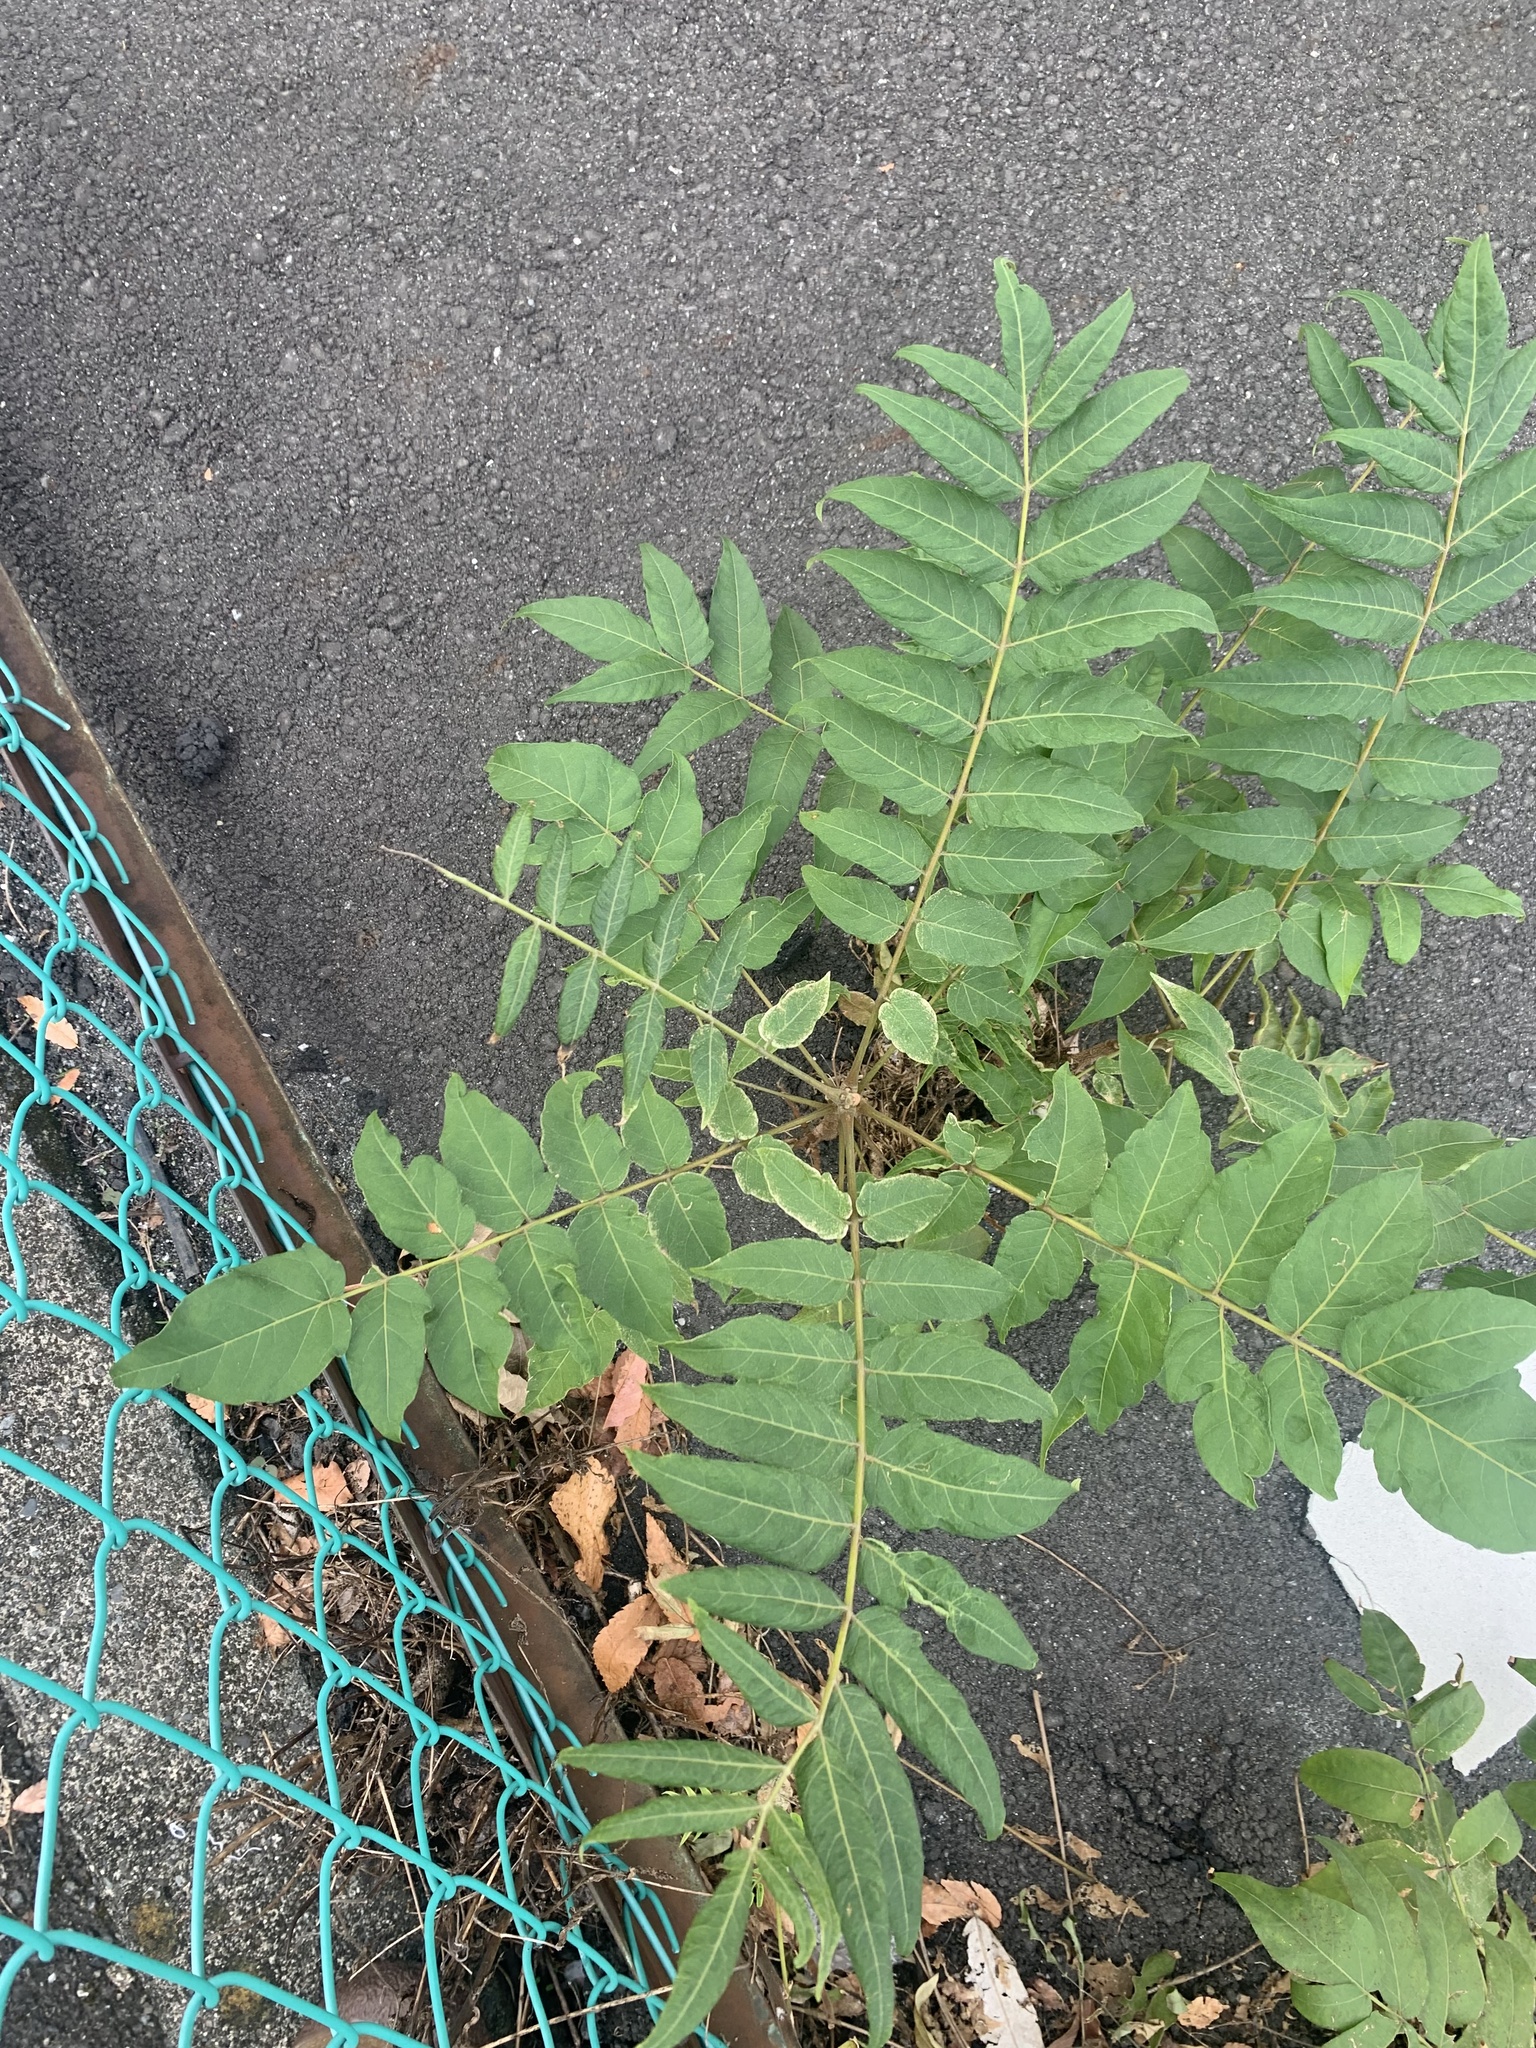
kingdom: Plantae
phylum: Tracheophyta
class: Magnoliopsida
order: Sapindales
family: Simaroubaceae
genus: Ailanthus
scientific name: Ailanthus altissima
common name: Tree-of-heaven
